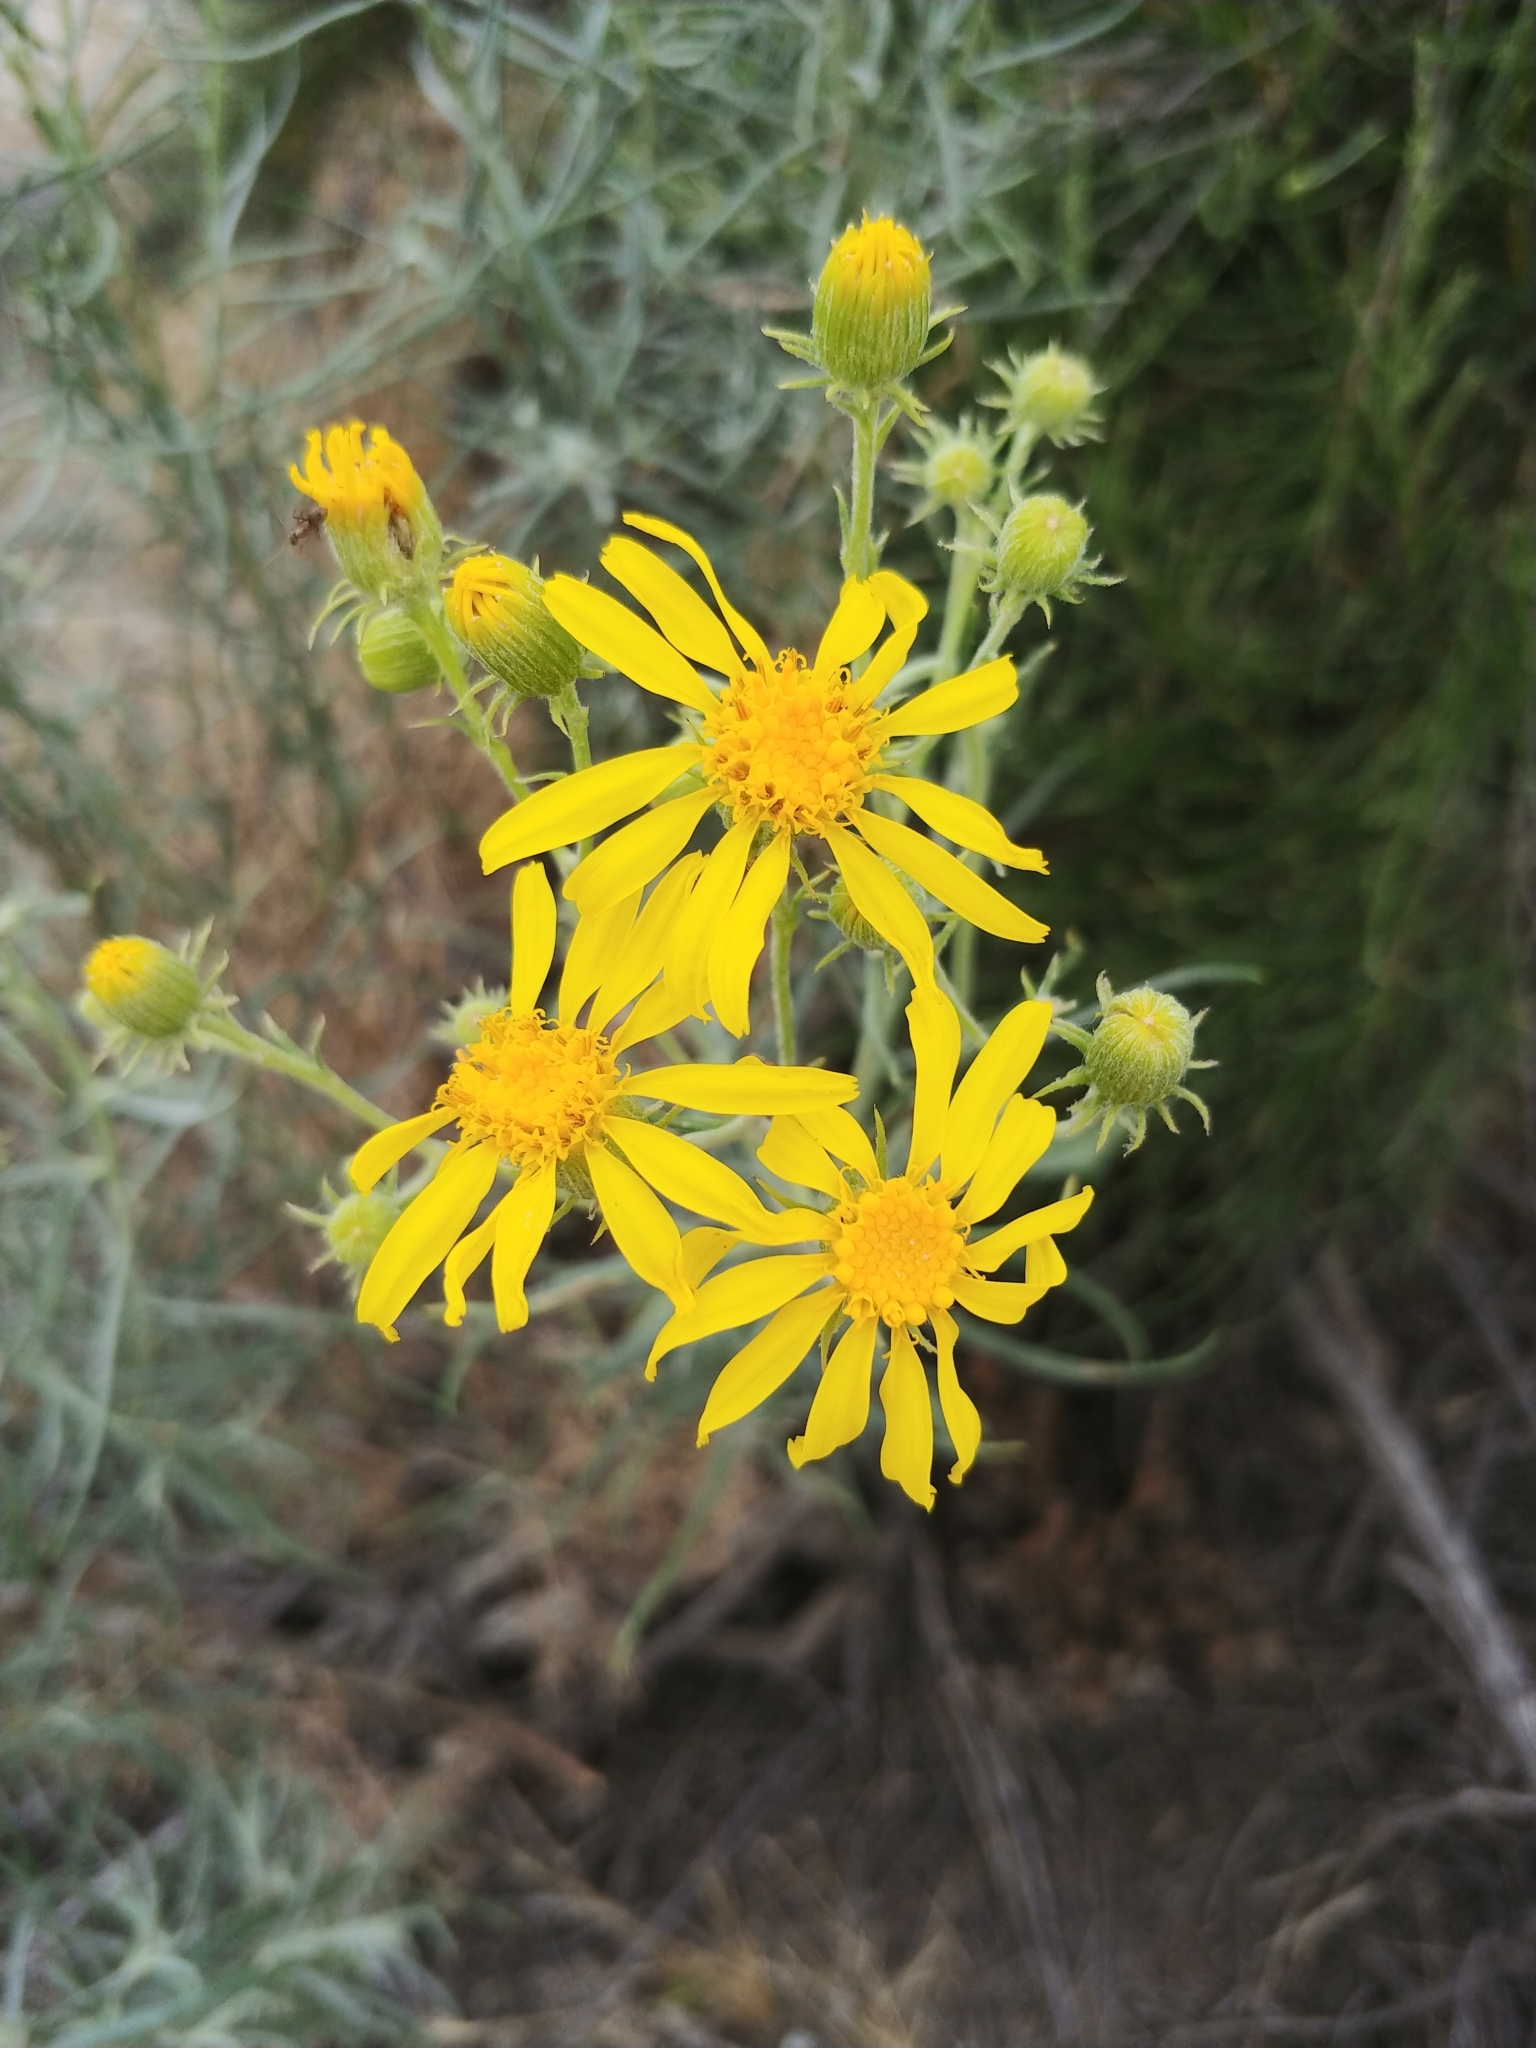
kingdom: Plantae
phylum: Tracheophyta
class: Magnoliopsida
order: Asterales
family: Asteraceae
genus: Senecio
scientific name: Senecio flaccidus
